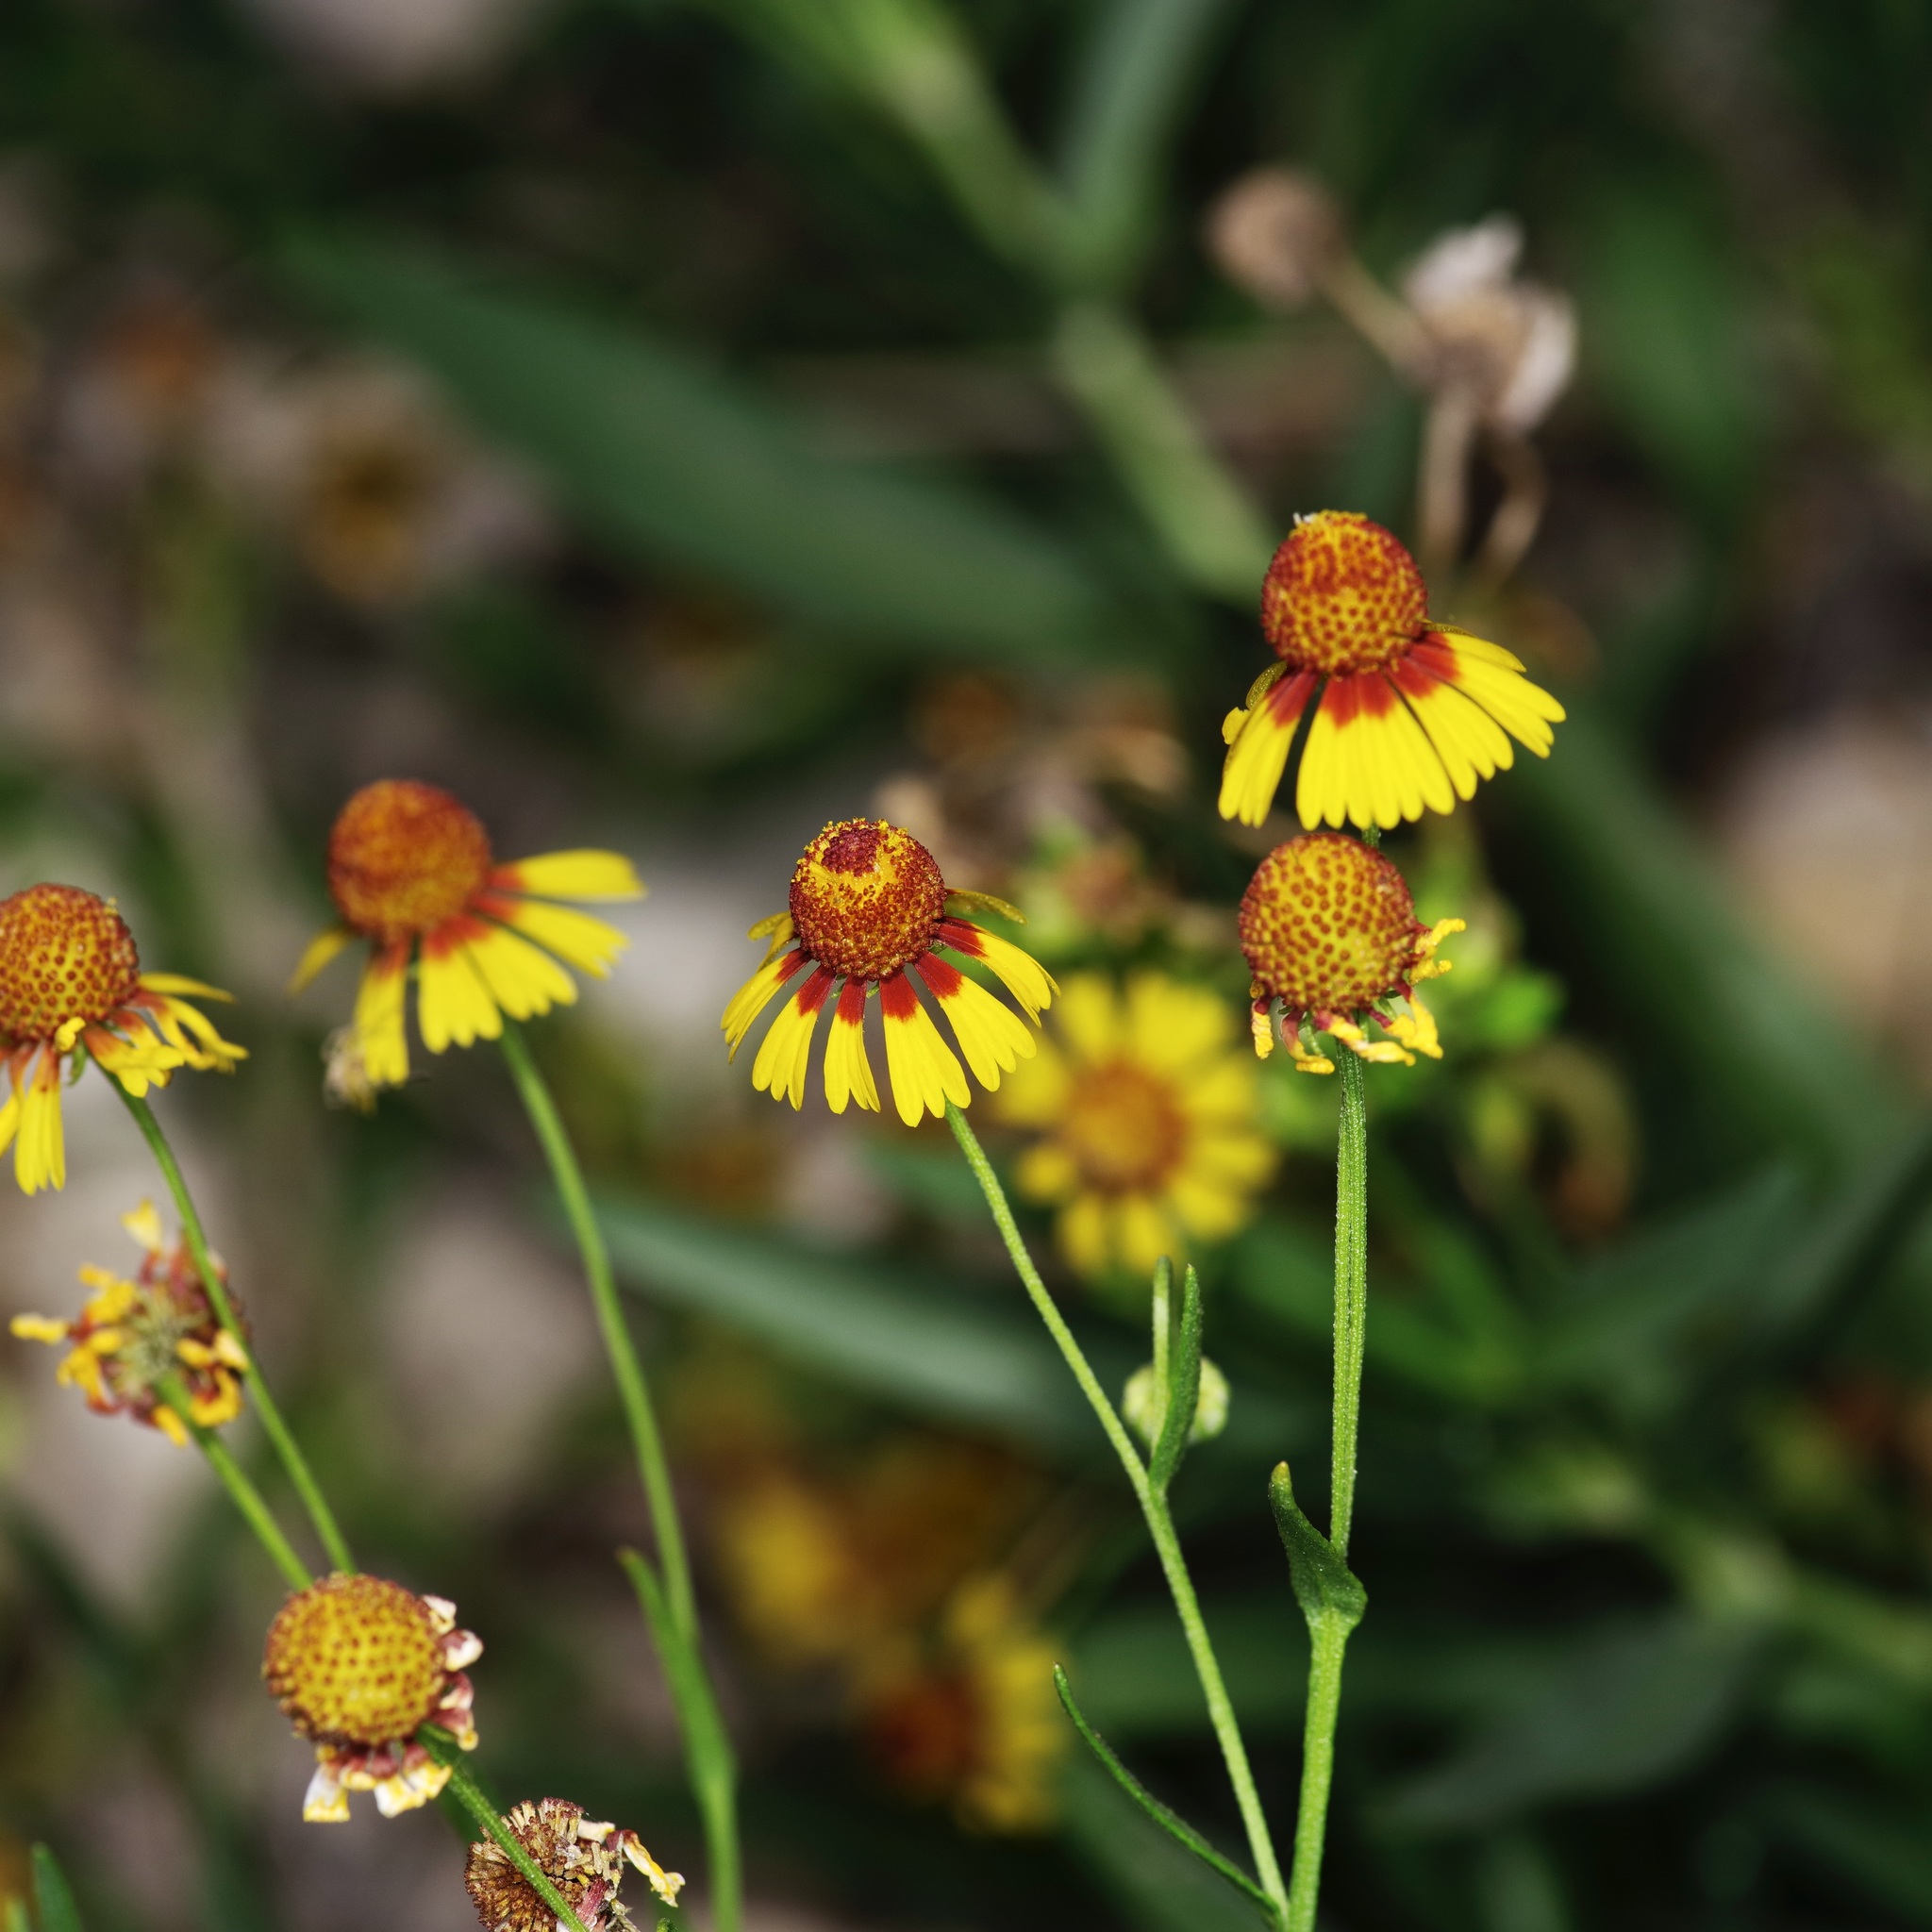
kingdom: Plantae
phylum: Tracheophyta
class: Magnoliopsida
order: Asterales
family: Asteraceae
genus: Helenium
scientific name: Helenium elegans
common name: Pretty sneezeweed
